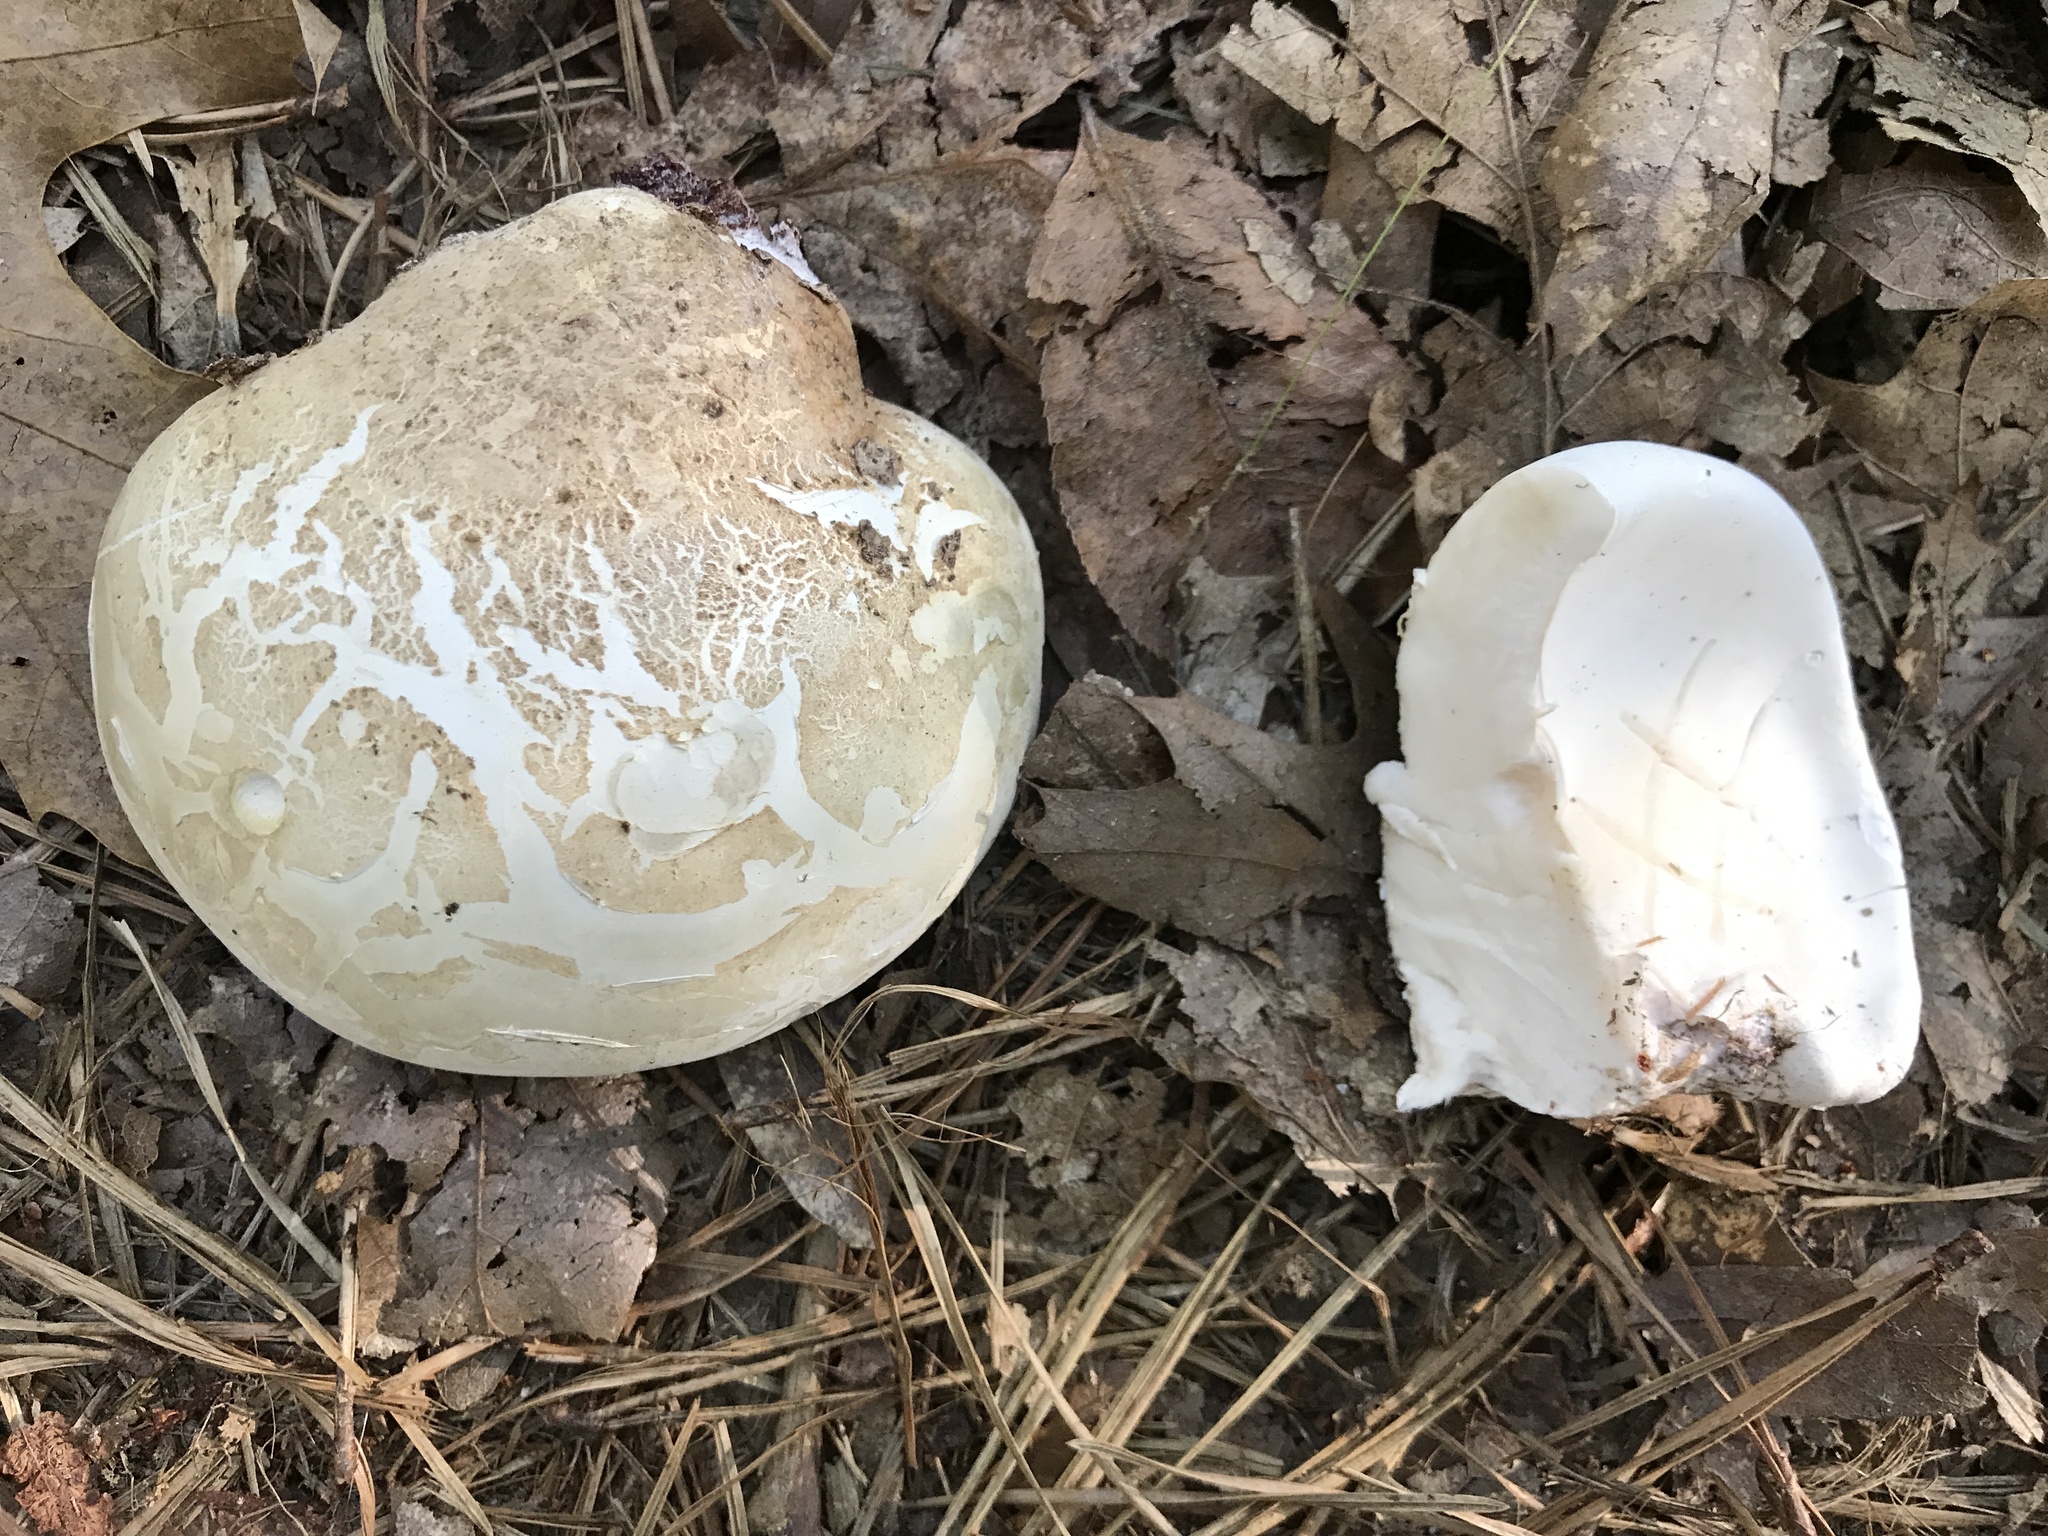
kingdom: Fungi
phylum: Basidiomycota
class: Agaricomycetes
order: Polyporales
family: Fomitopsidaceae
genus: Fomitopsis
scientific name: Fomitopsis betulina
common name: Birch polypore
